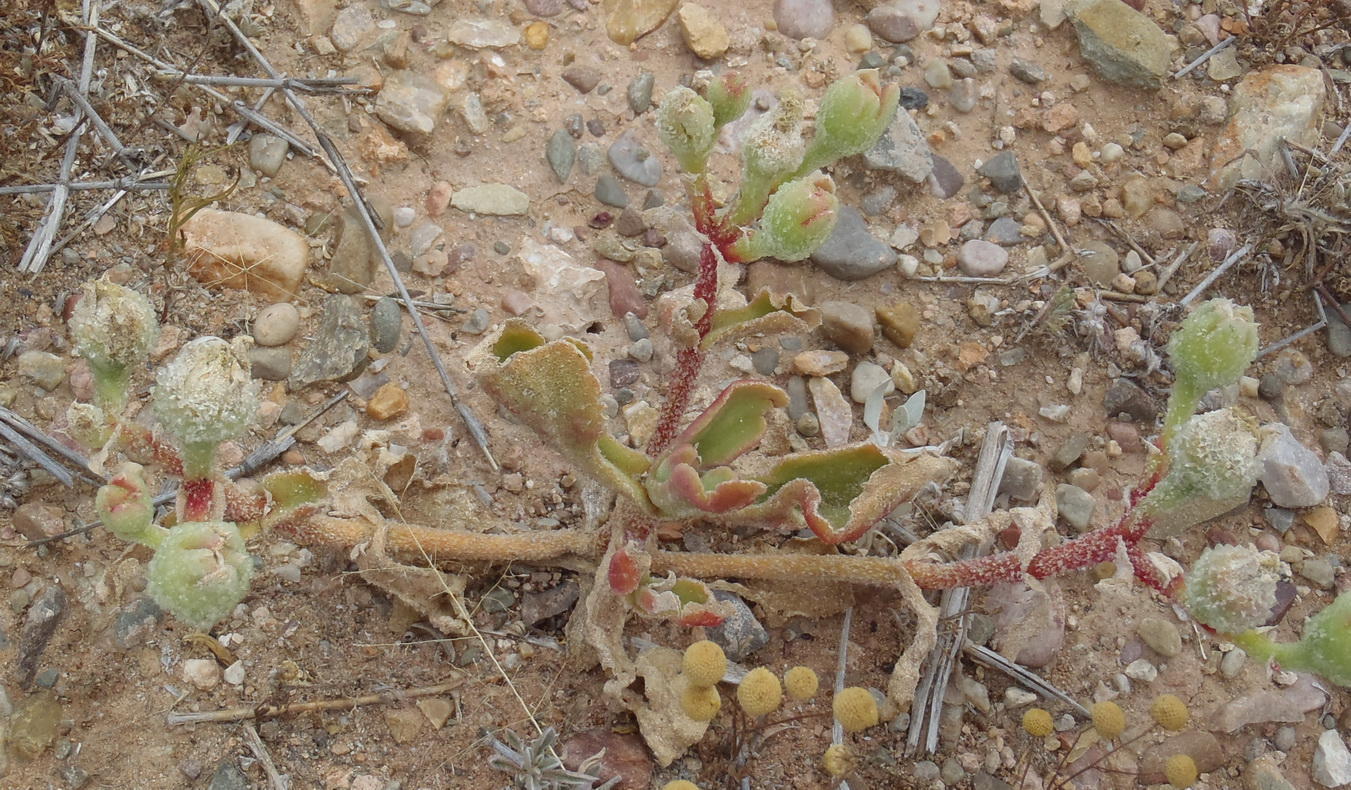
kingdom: Plantae
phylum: Tracheophyta
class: Magnoliopsida
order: Caryophyllales
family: Aizoaceae
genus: Mesembryanthemum
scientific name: Mesembryanthemum crystallinum
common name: Common iceplant
